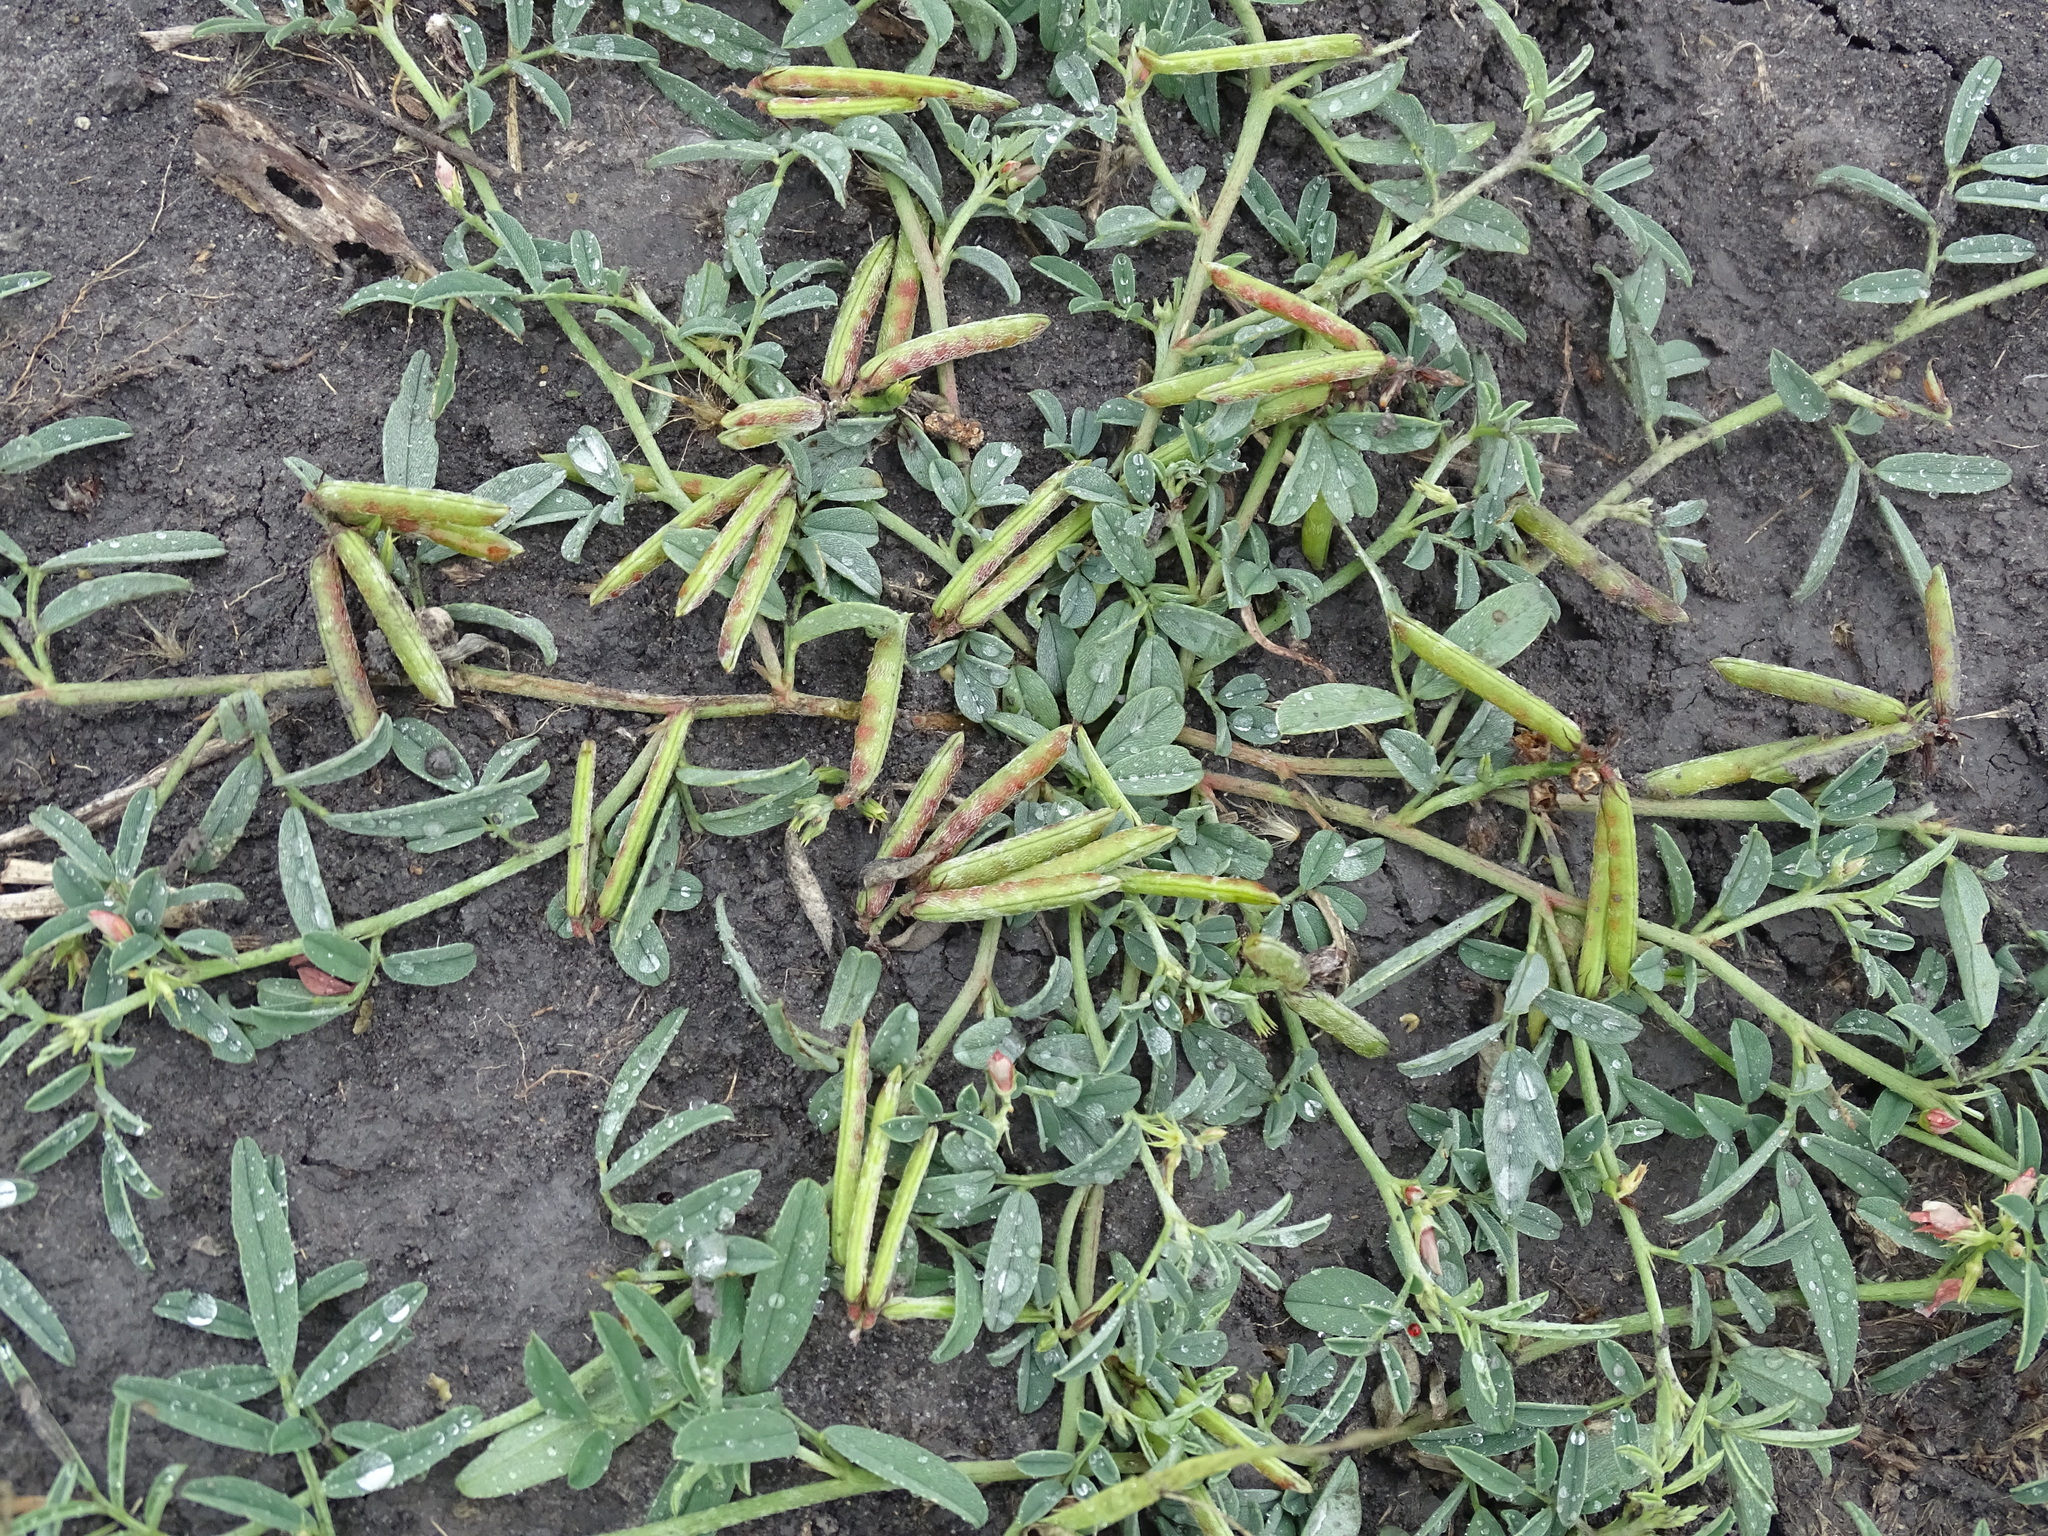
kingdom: Plantae
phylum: Tracheophyta
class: Magnoliopsida
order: Fabales
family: Fabaceae
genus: Indigofera
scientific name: Indigofera miniata
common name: Coast indigo
